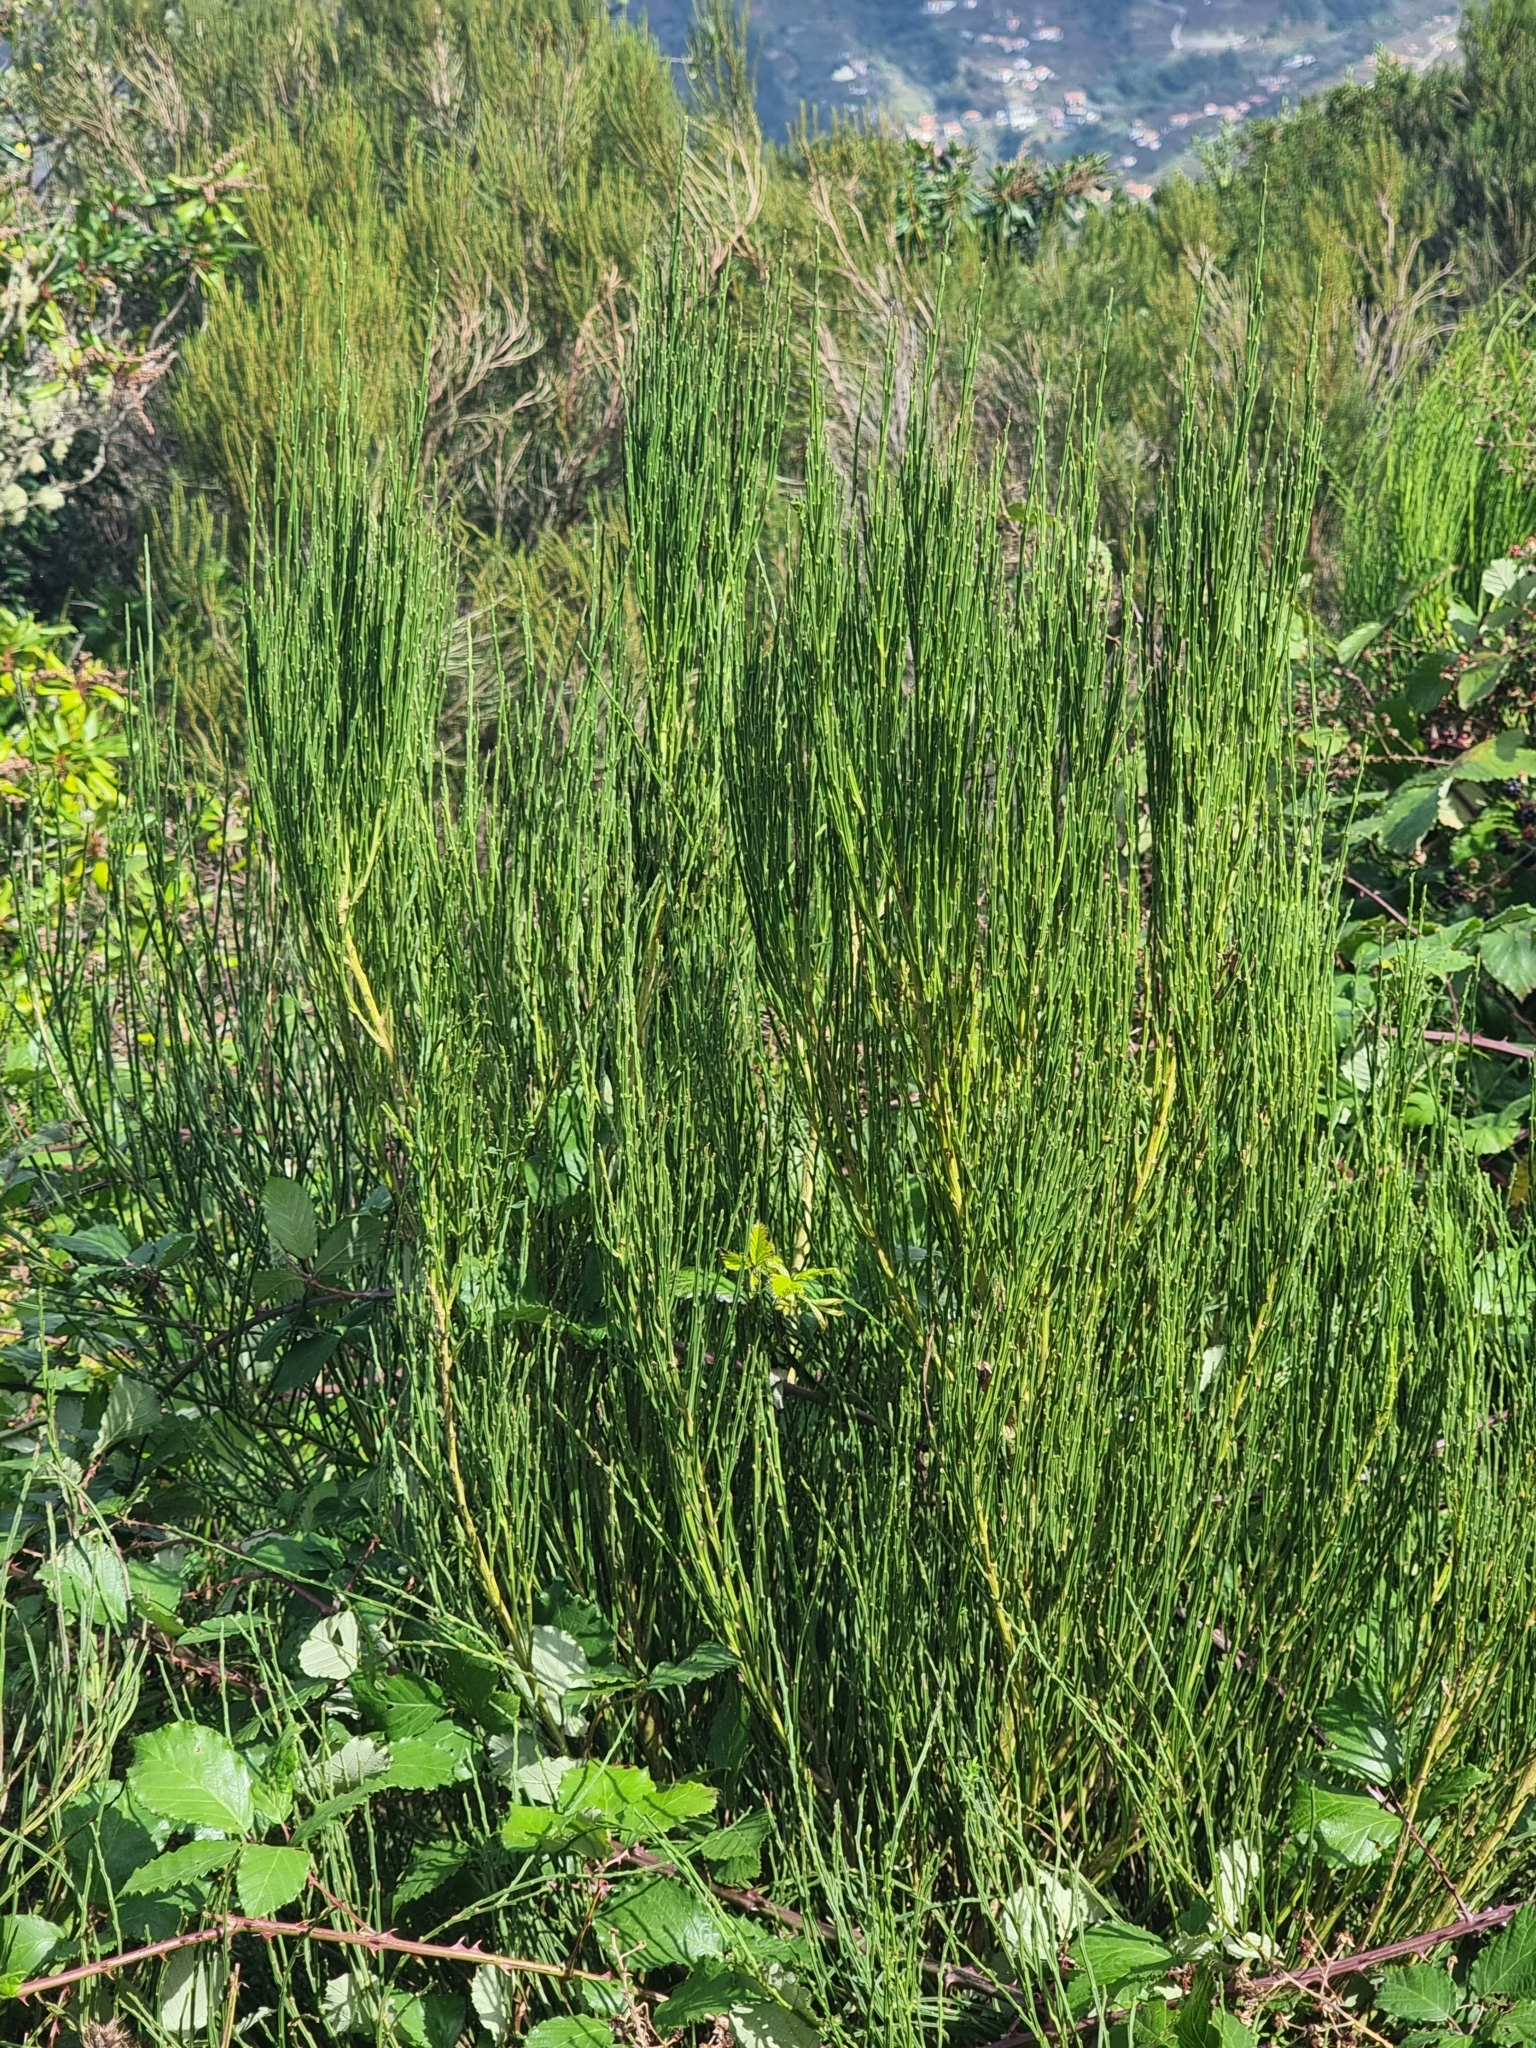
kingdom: Plantae
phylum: Tracheophyta
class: Magnoliopsida
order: Fabales
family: Fabaceae
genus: Cytisus
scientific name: Cytisus scoparius
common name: Scotch broom
